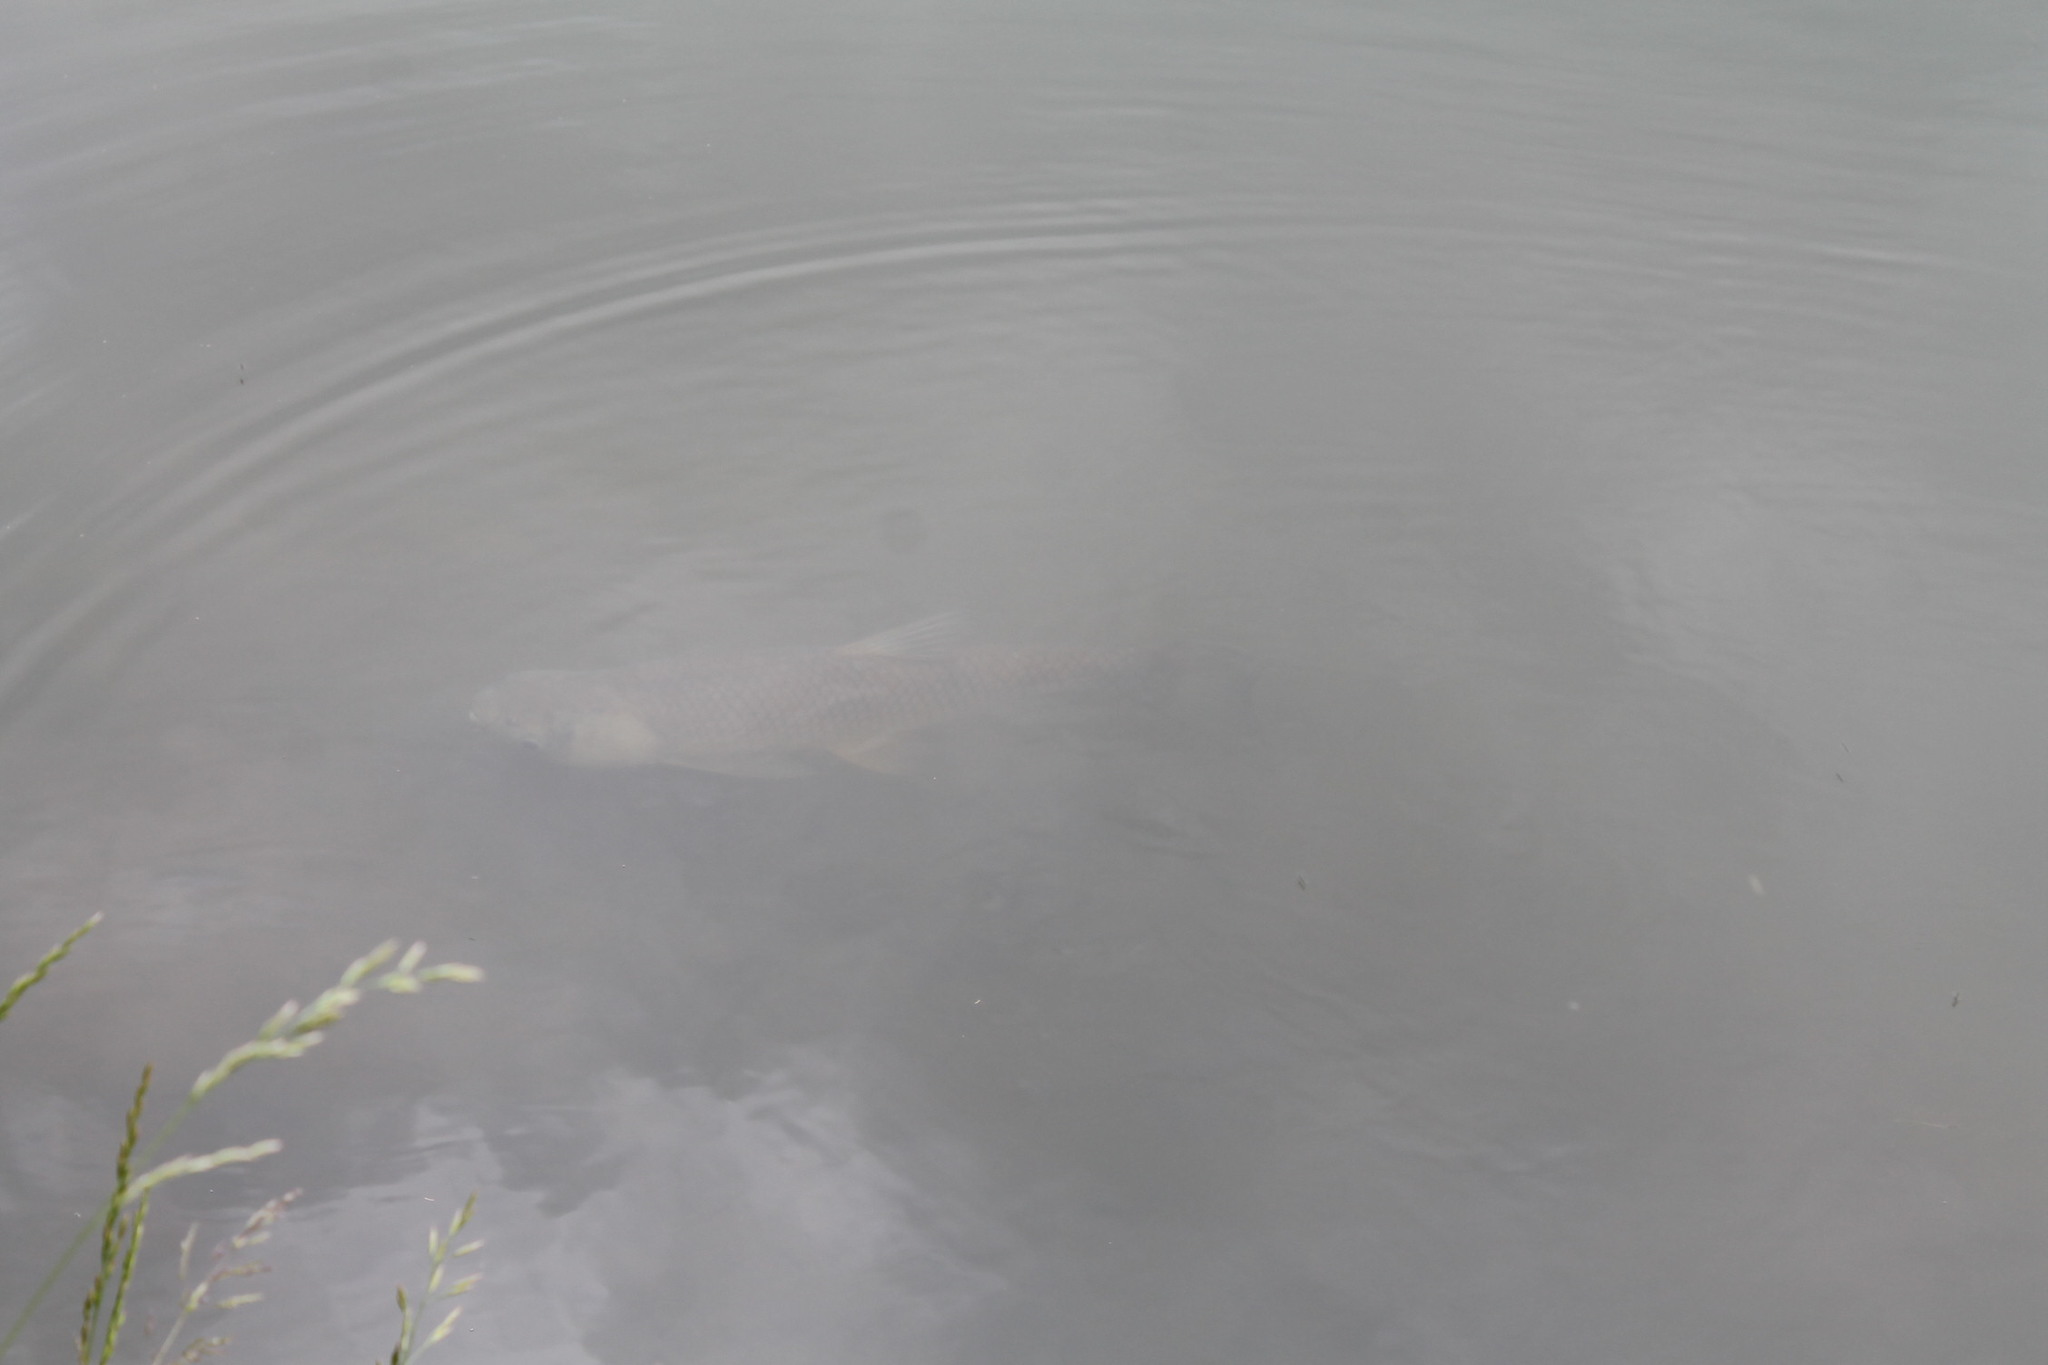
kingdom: Animalia
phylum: Chordata
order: Cypriniformes
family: Cyprinidae
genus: Ctenopharyngodon
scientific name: Ctenopharyngodon idella
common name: Grass carp
